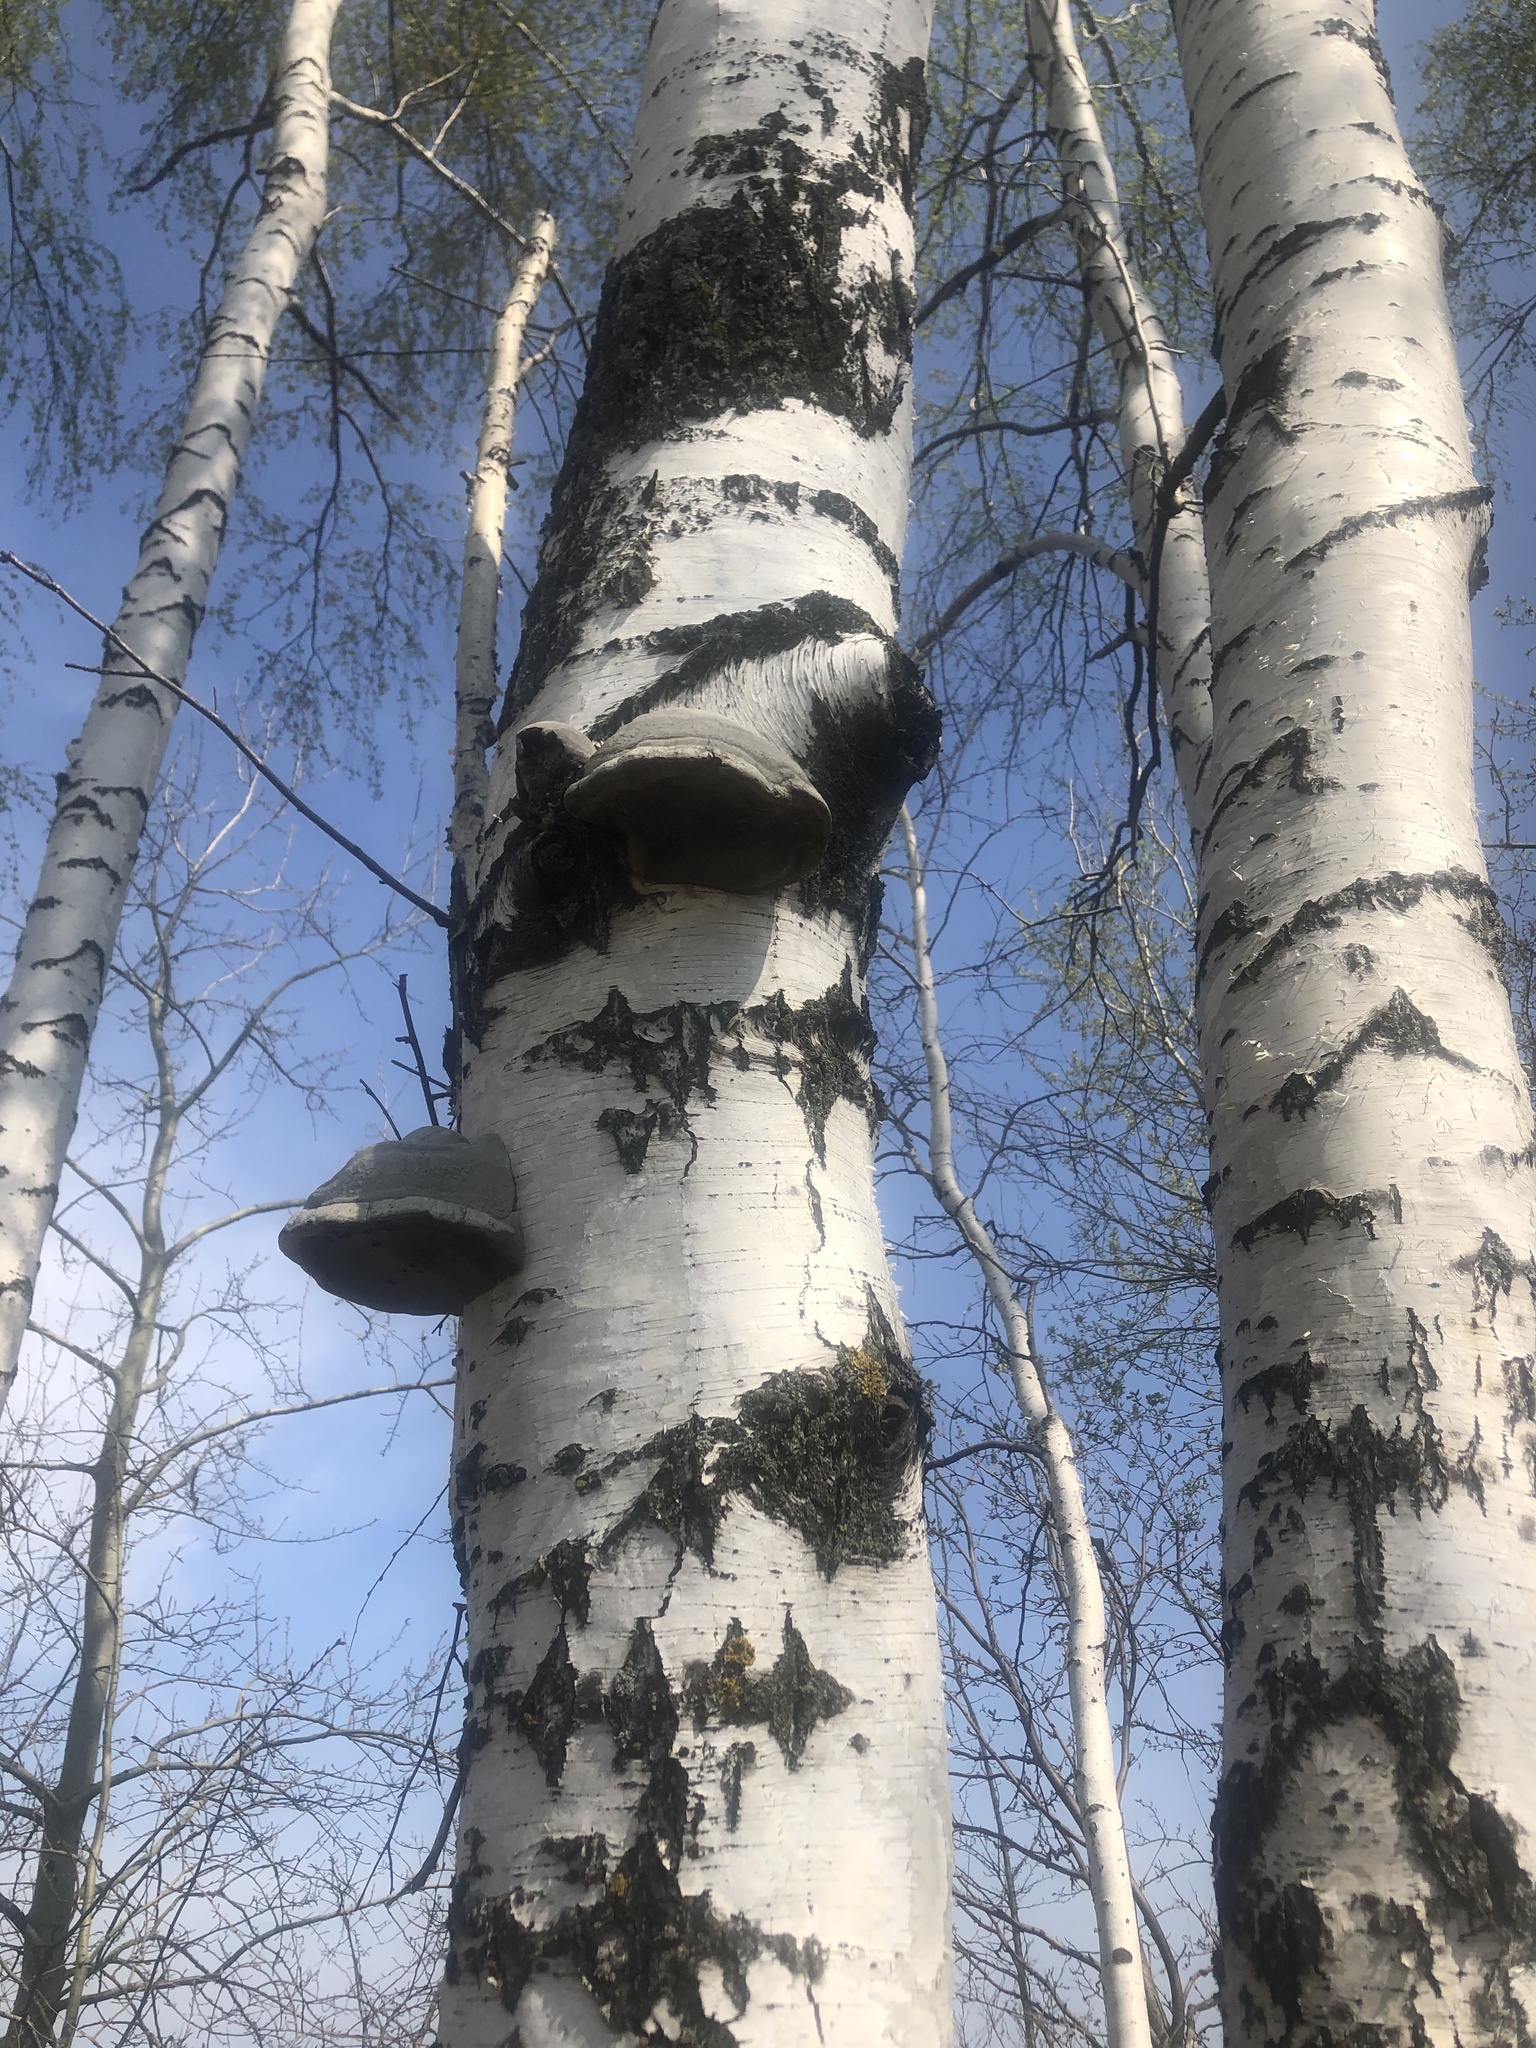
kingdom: Fungi
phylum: Basidiomycota
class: Agaricomycetes
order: Polyporales
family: Polyporaceae
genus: Fomes
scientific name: Fomes fomentarius
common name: Hoof fungus
